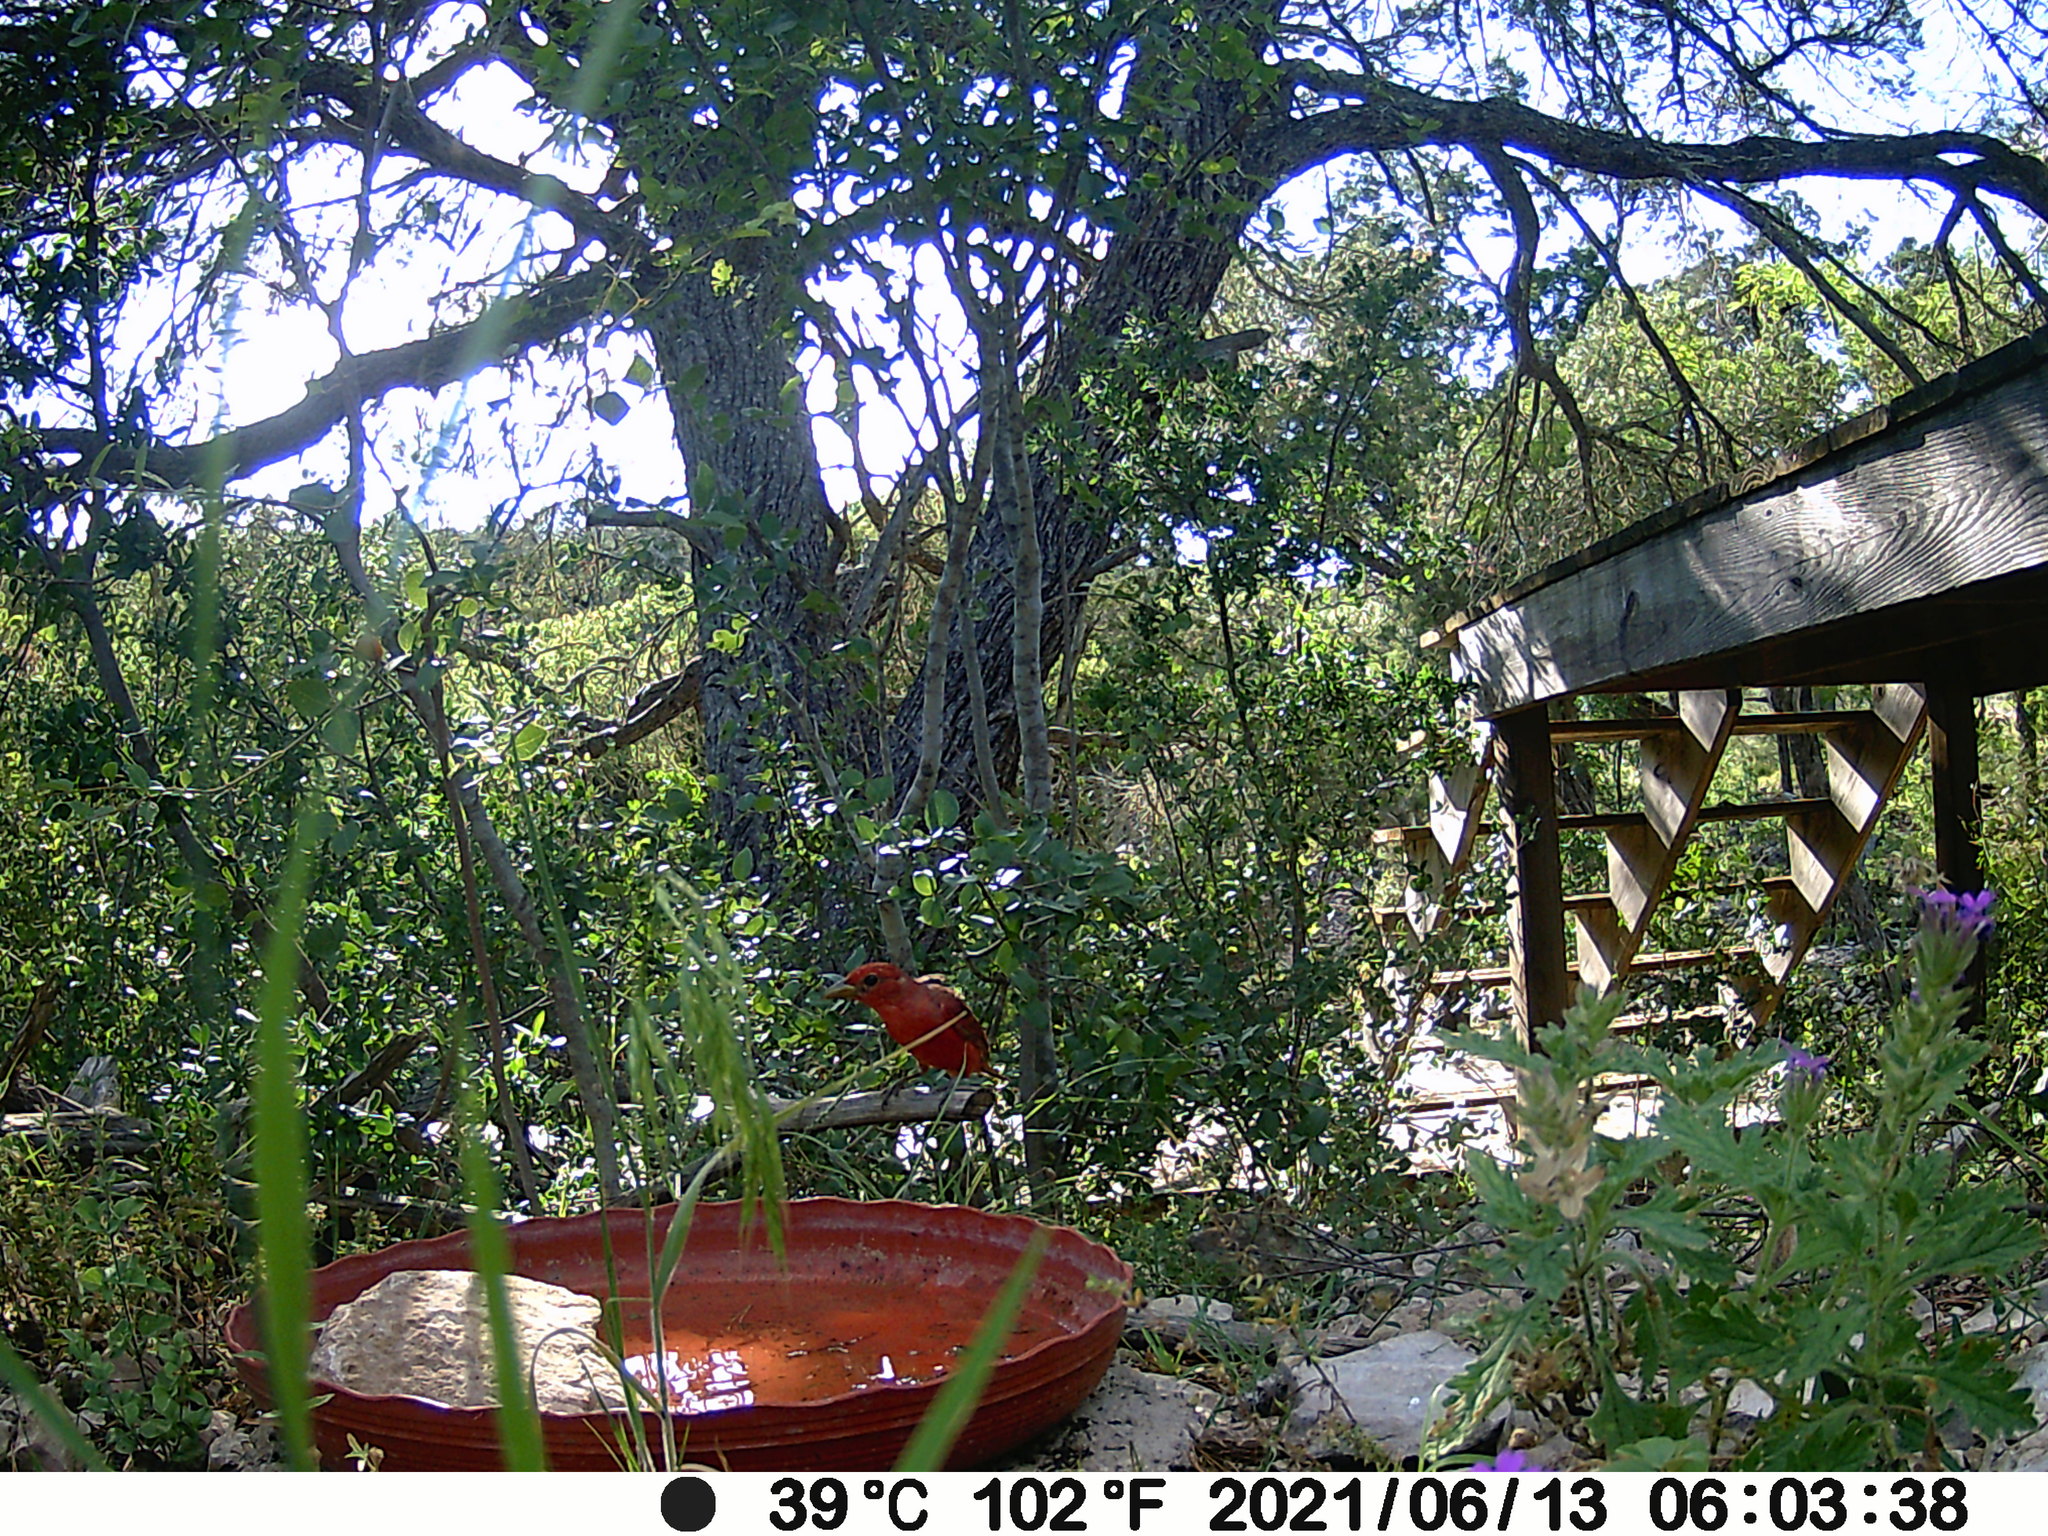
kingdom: Animalia
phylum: Chordata
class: Aves
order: Passeriformes
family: Cardinalidae
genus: Piranga
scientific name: Piranga rubra
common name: Summer tanager
